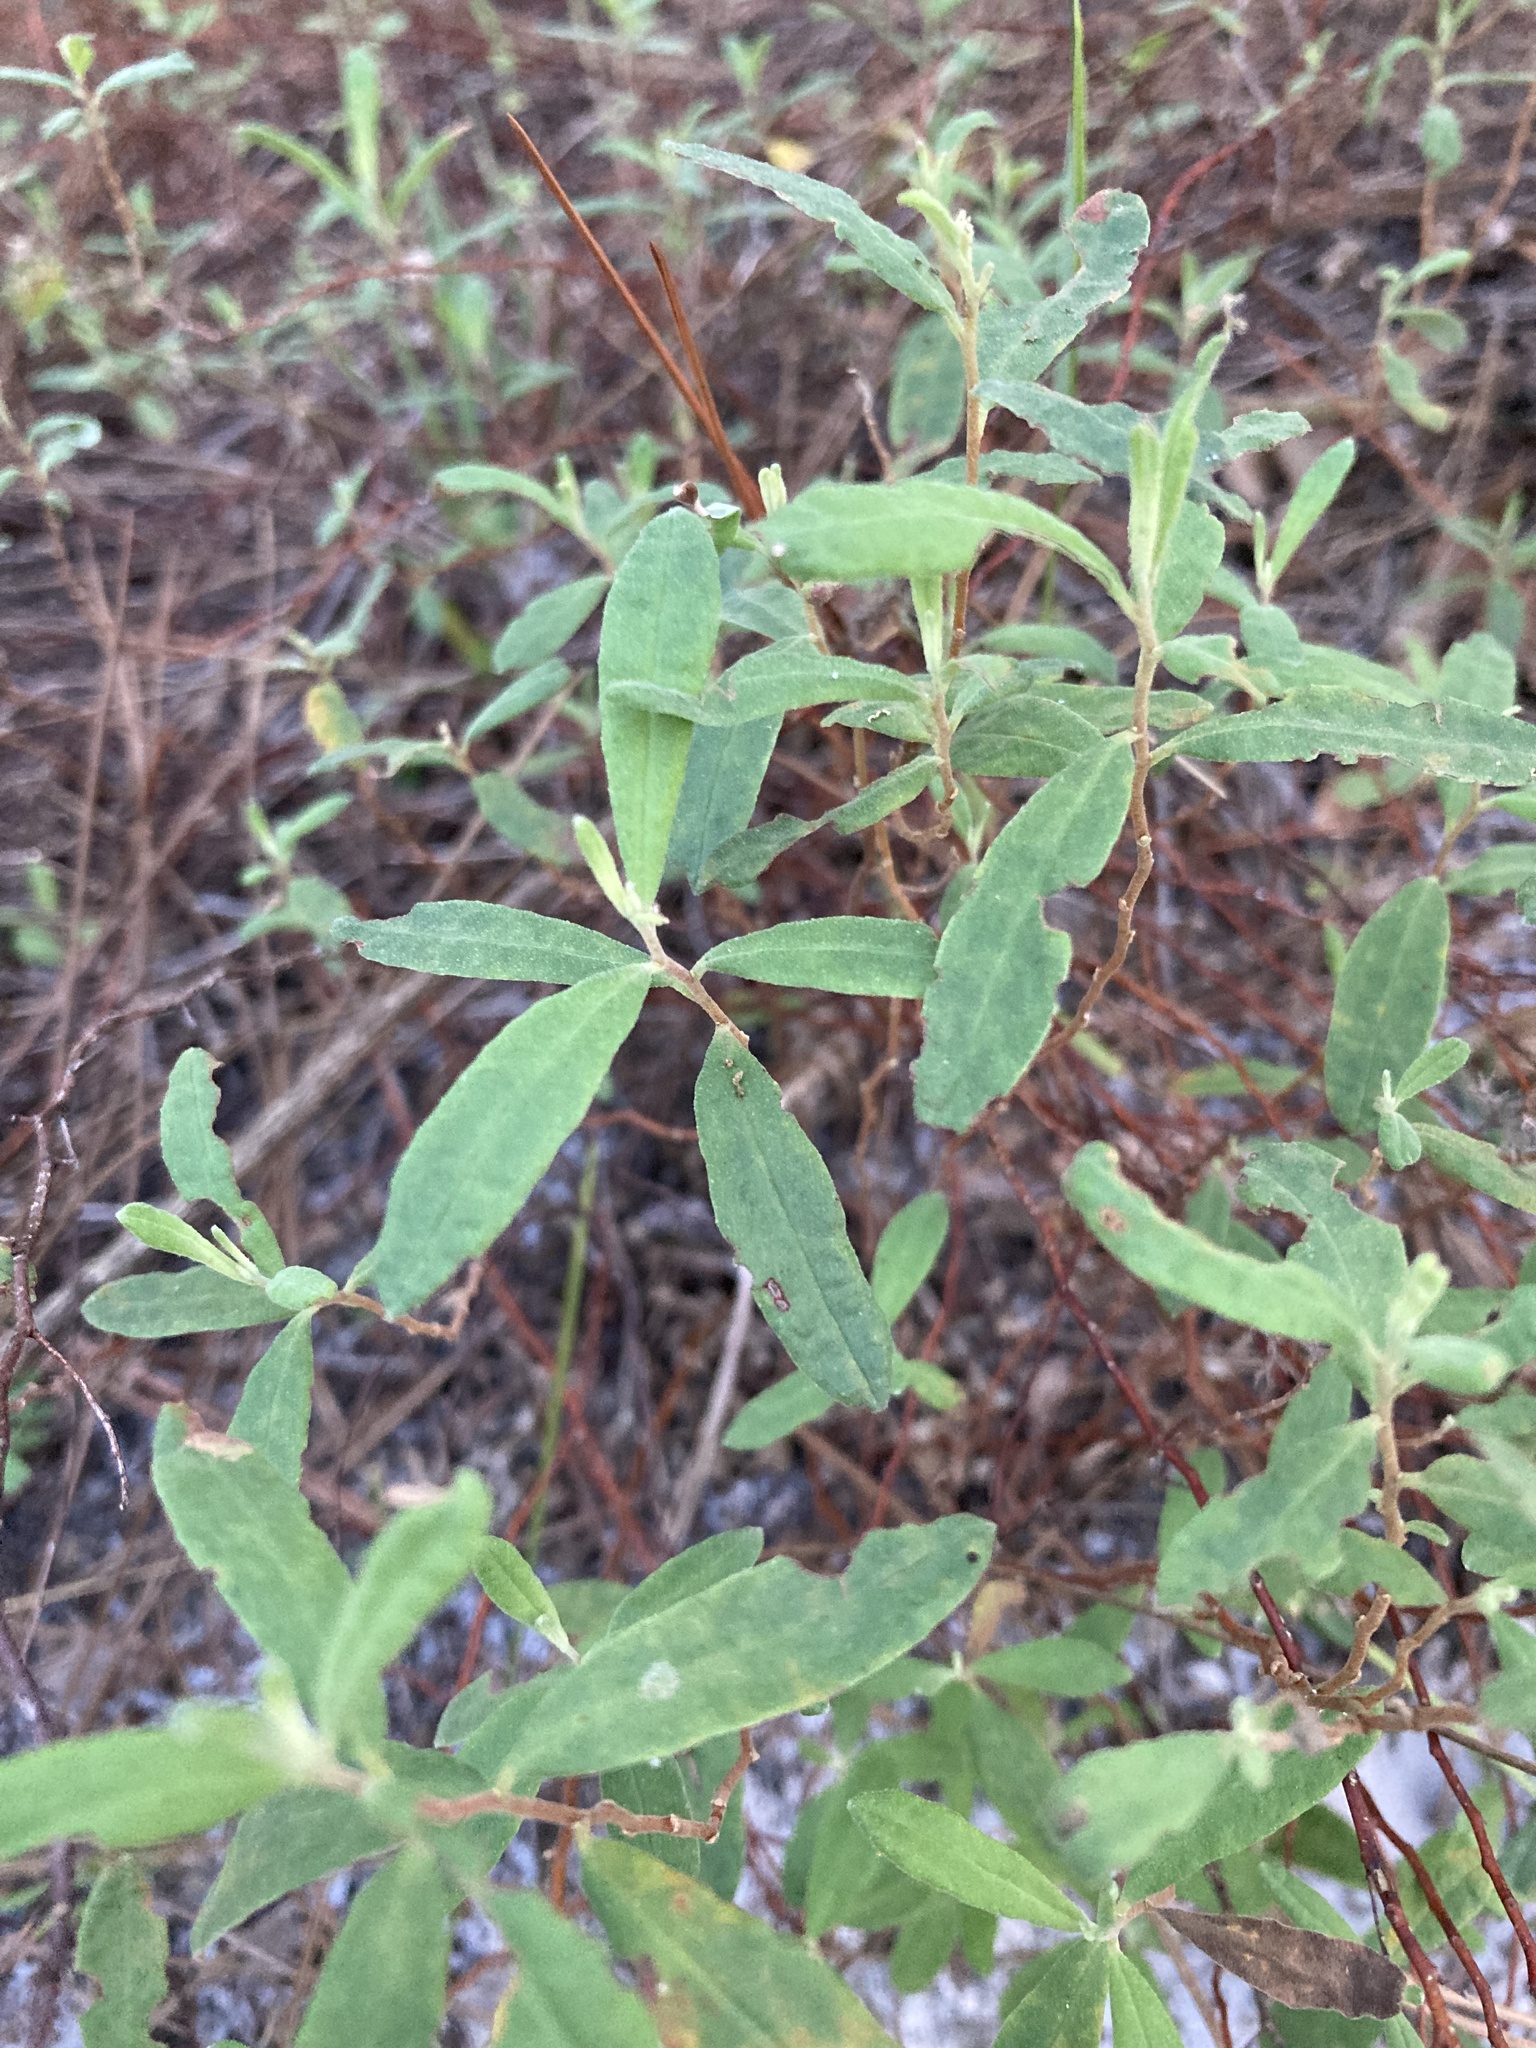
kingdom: Plantae
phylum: Tracheophyta
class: Magnoliopsida
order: Malvales
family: Cistaceae
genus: Crocanthemum
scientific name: Crocanthemum corymbosum
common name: Pinebarren sun-rose
